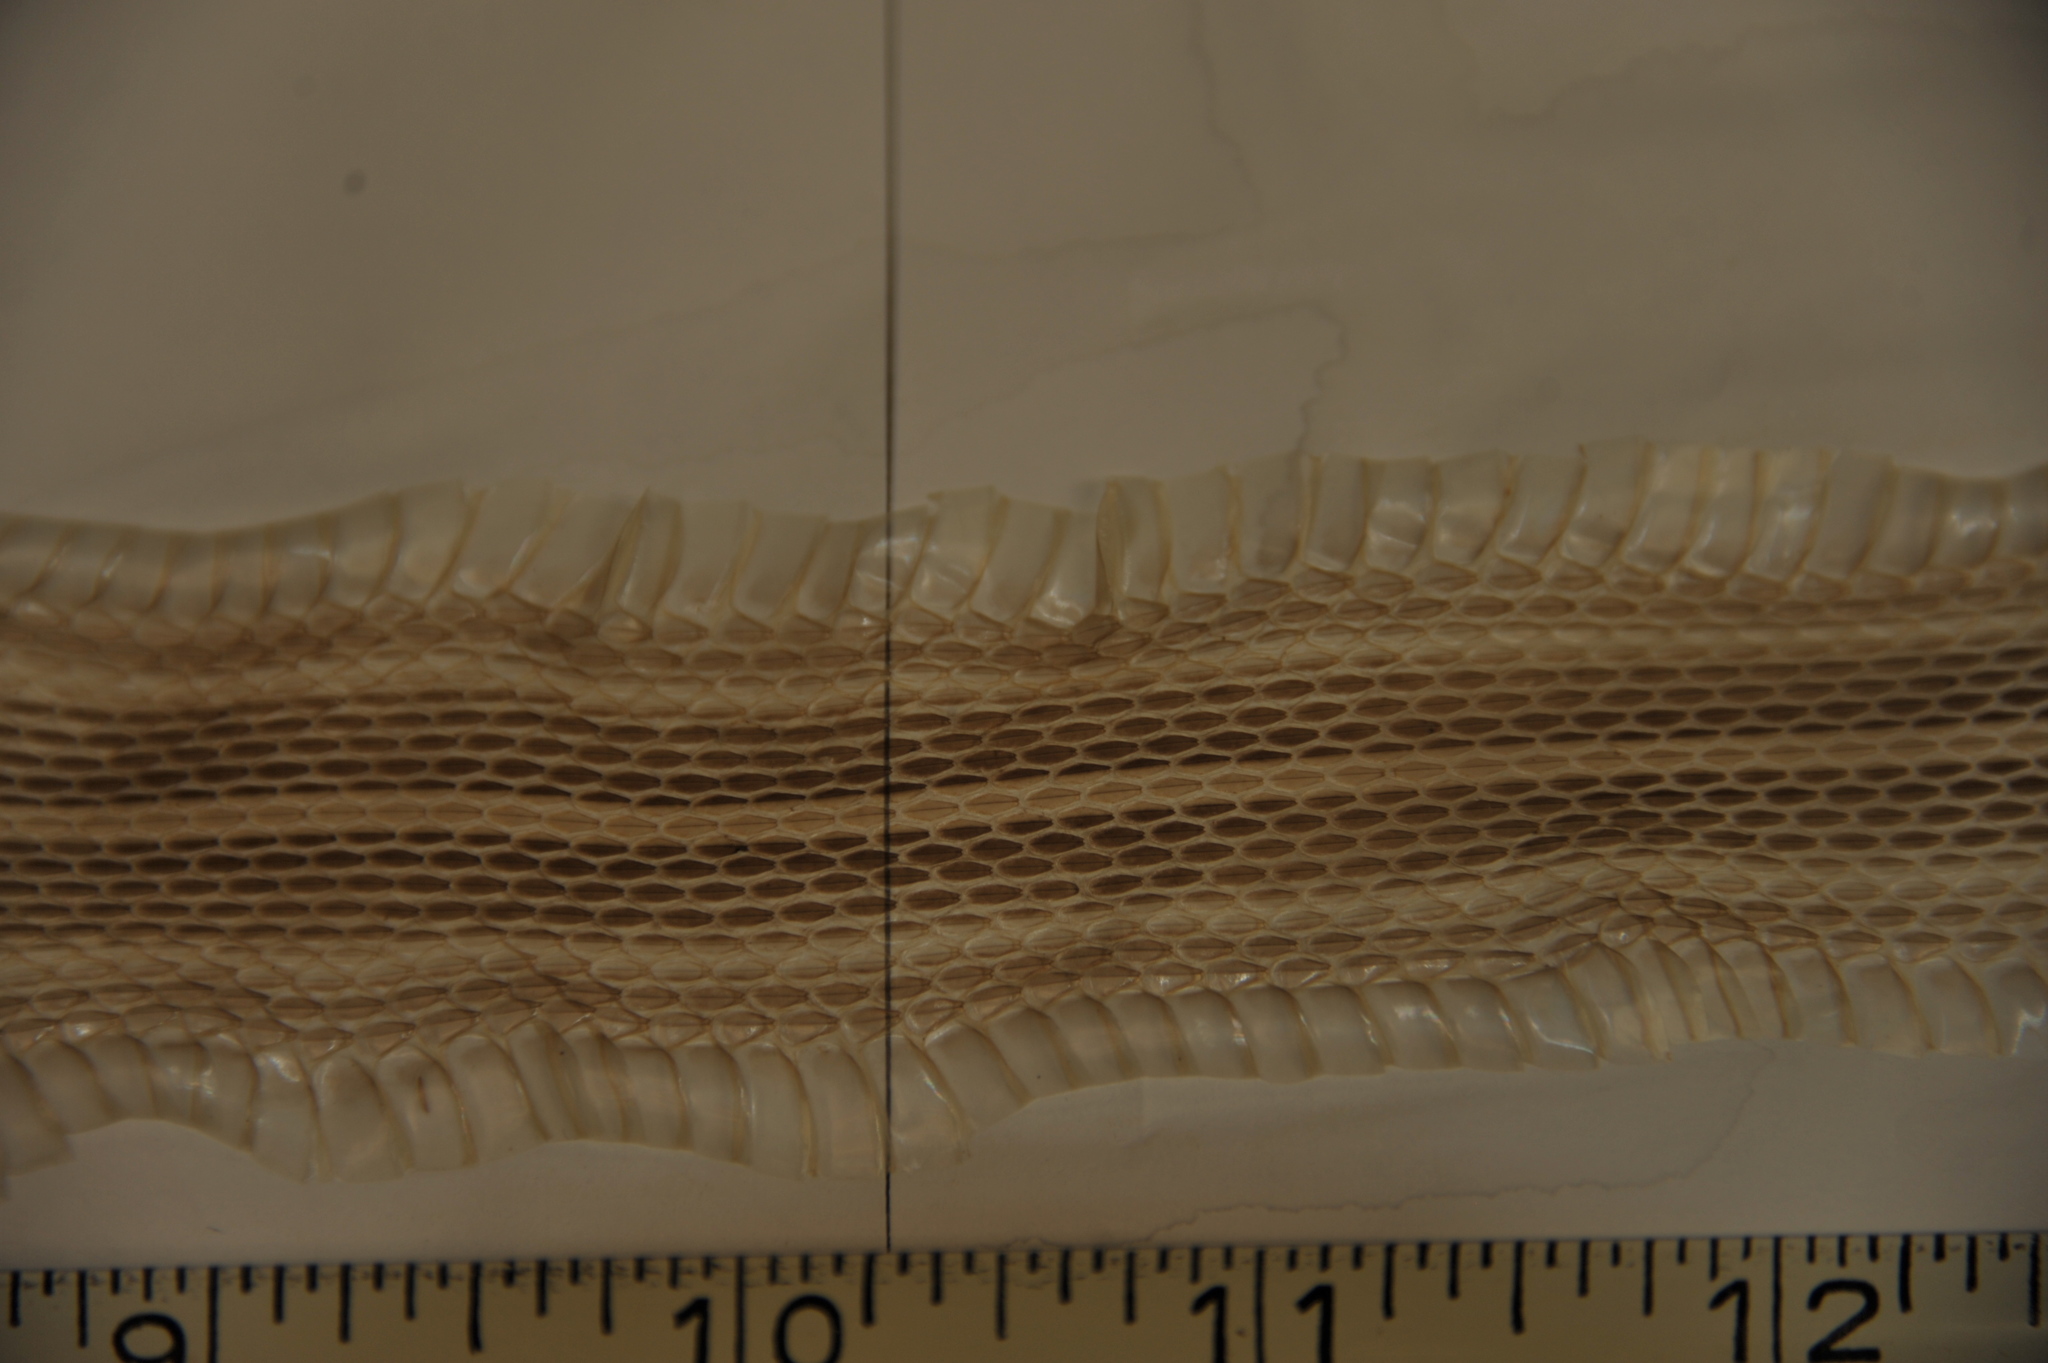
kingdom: Animalia
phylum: Chordata
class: Squamata
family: Colubridae
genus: Thamnophis
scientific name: Thamnophis saurita
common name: Eastern ribbonsnake
